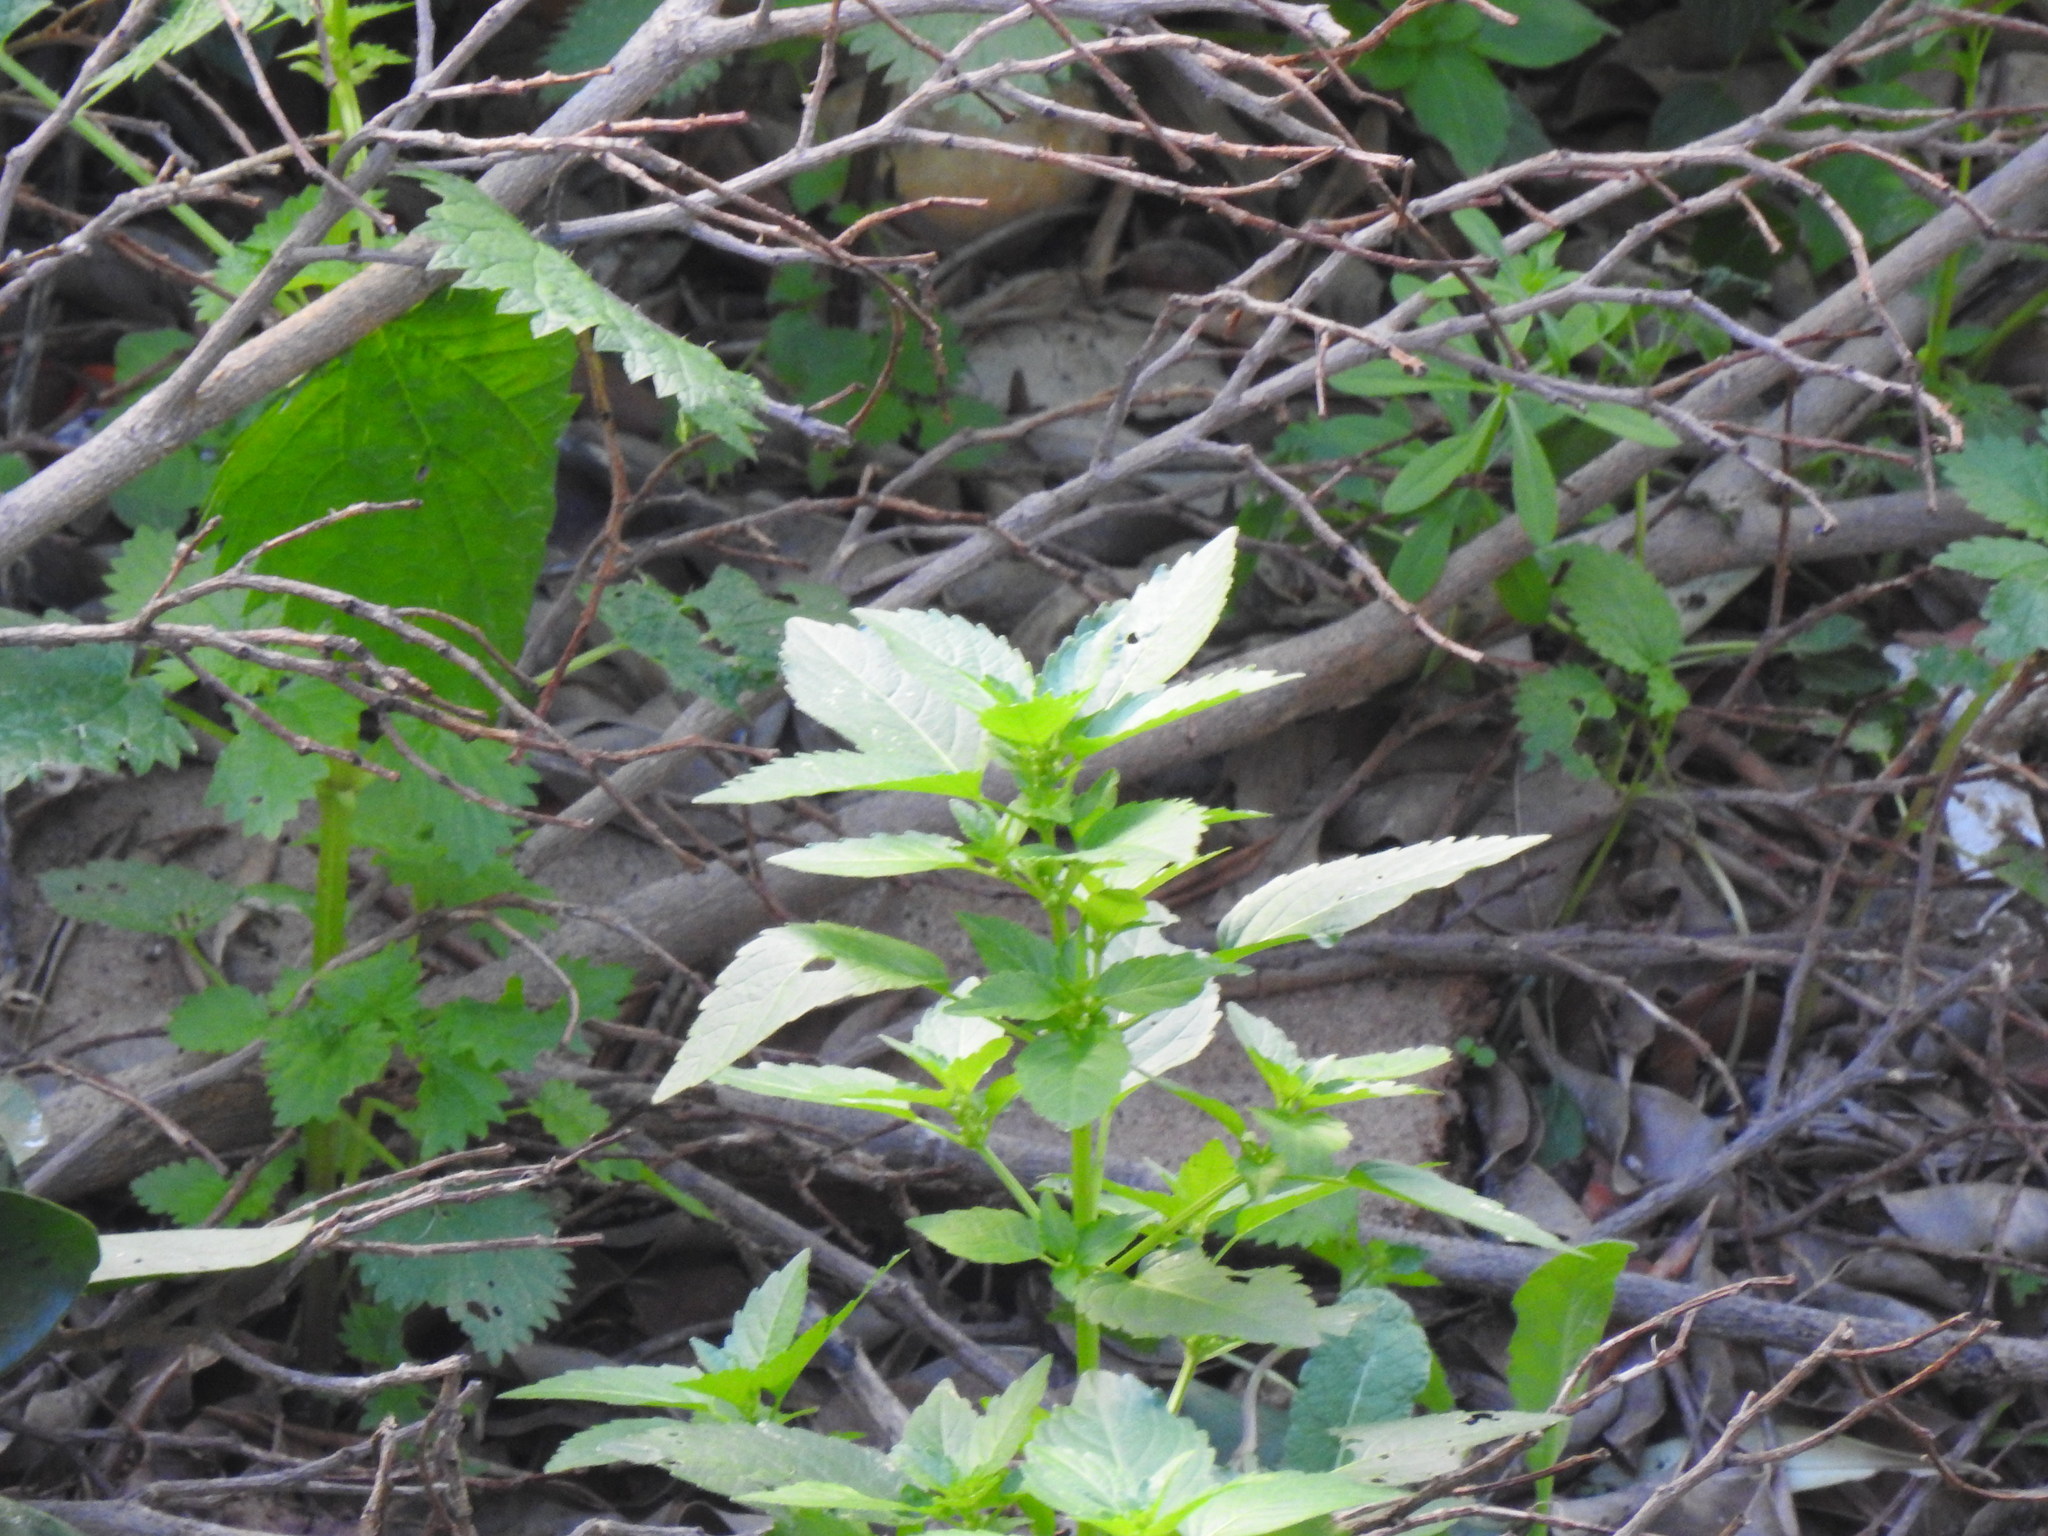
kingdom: Plantae
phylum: Tracheophyta
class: Magnoliopsida
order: Malpighiales
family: Euphorbiaceae
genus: Mercurialis
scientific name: Mercurialis annua
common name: Annual mercury
